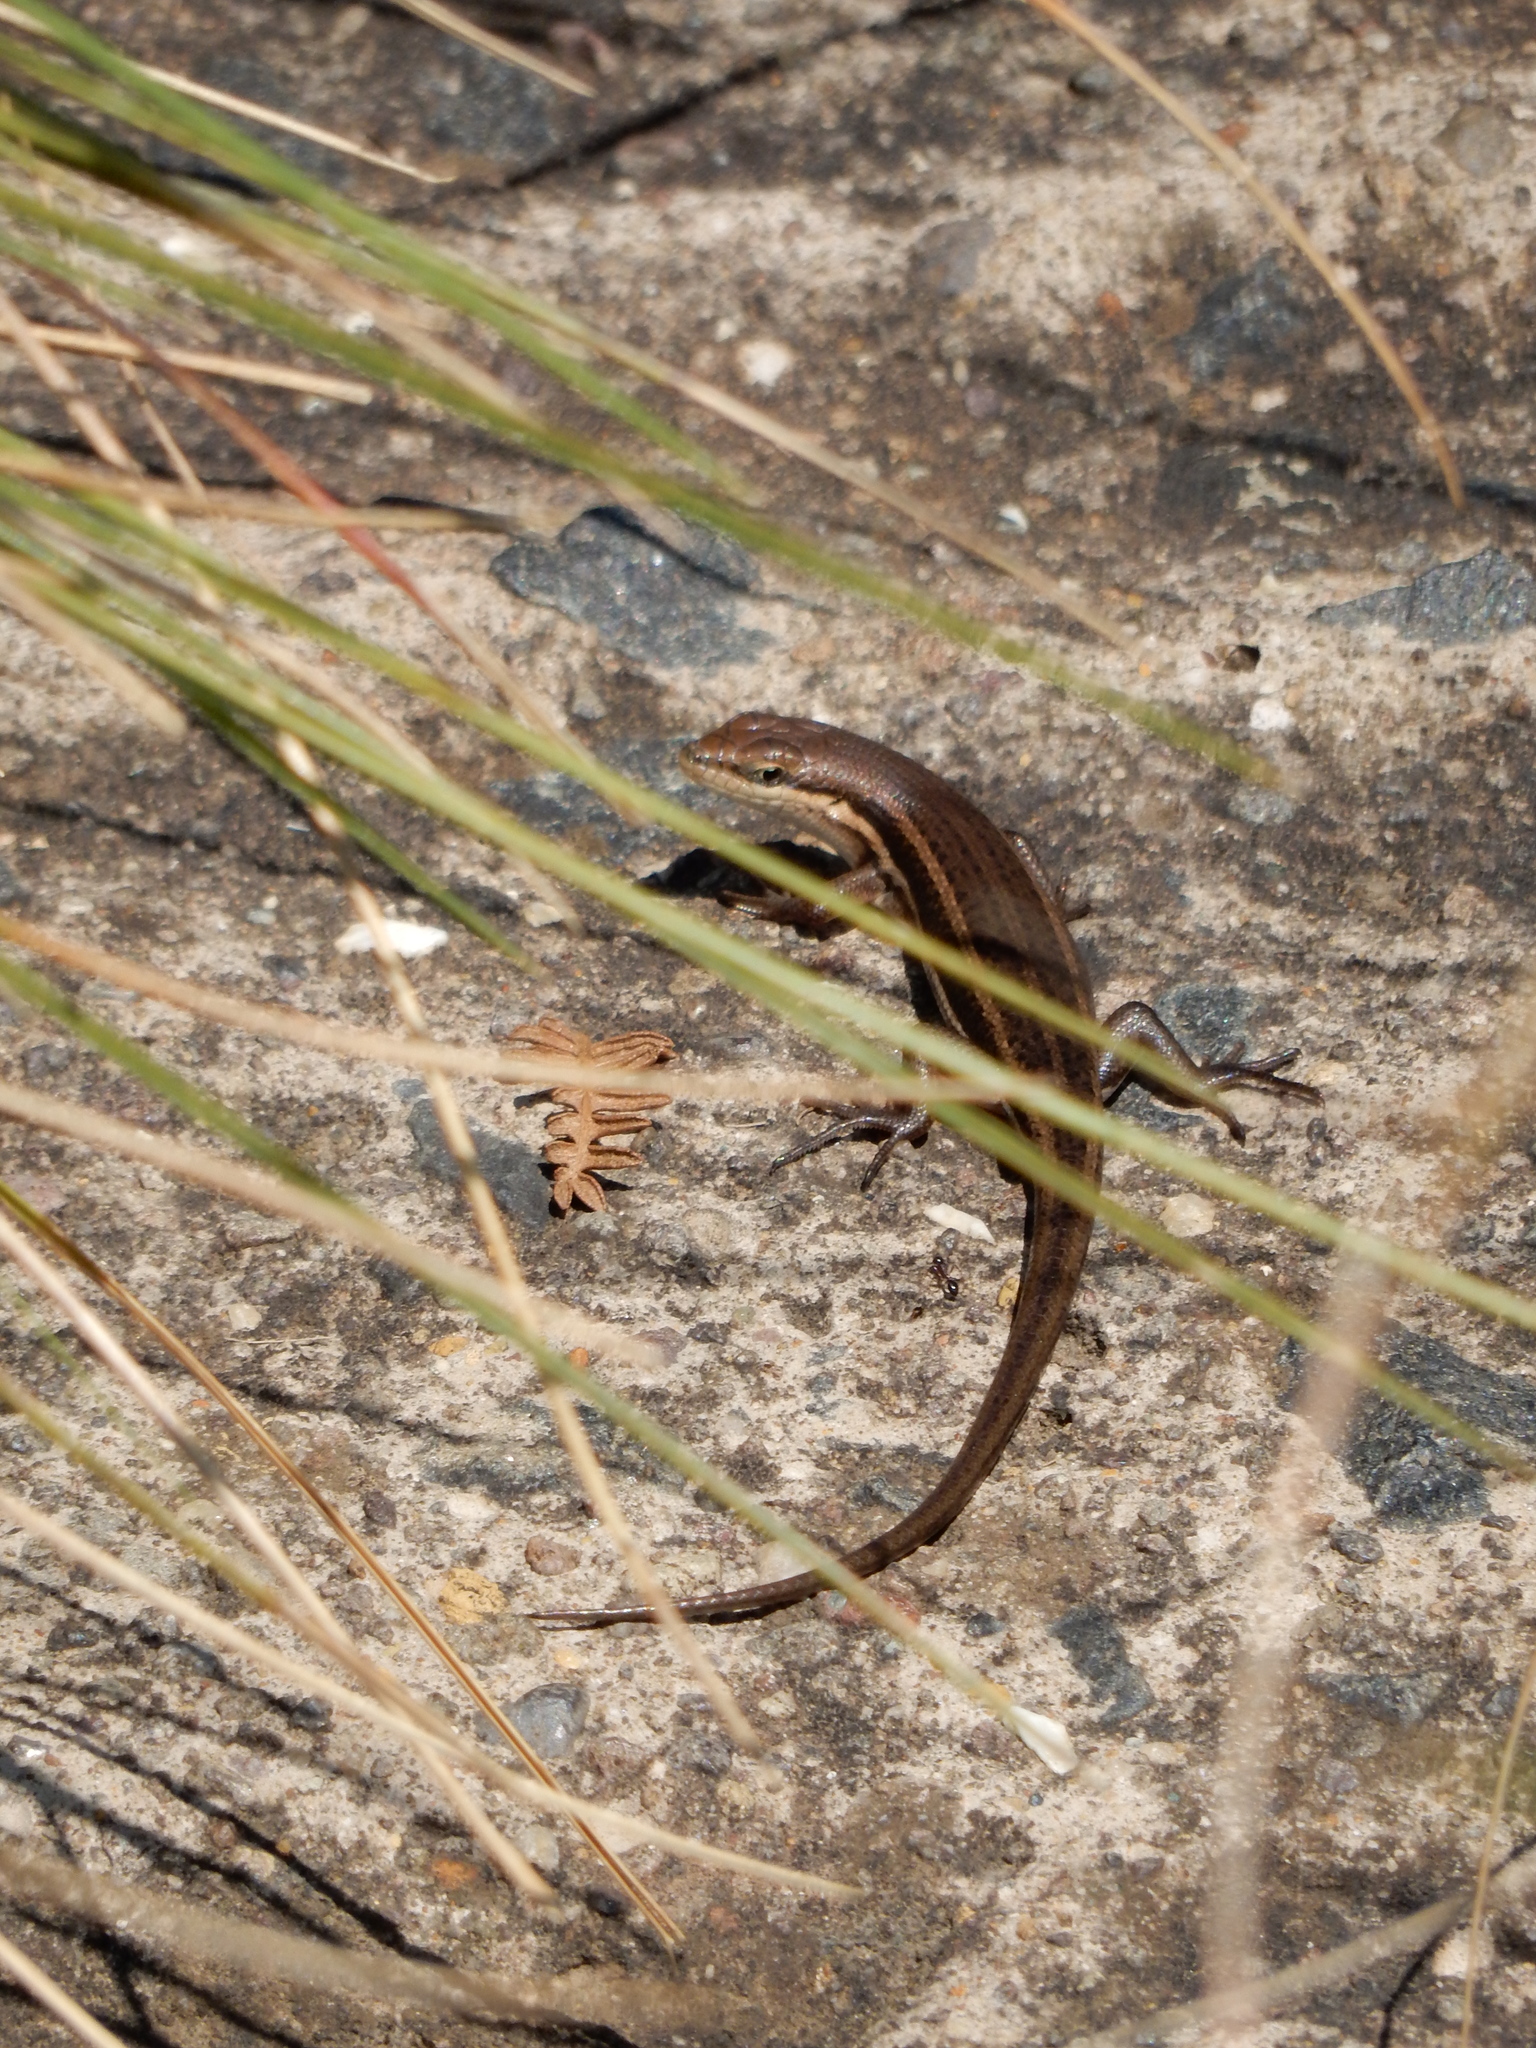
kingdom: Animalia
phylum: Chordata
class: Squamata
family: Scincidae
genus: Trachylepis
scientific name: Trachylepis varia
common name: Eastern variable skink
